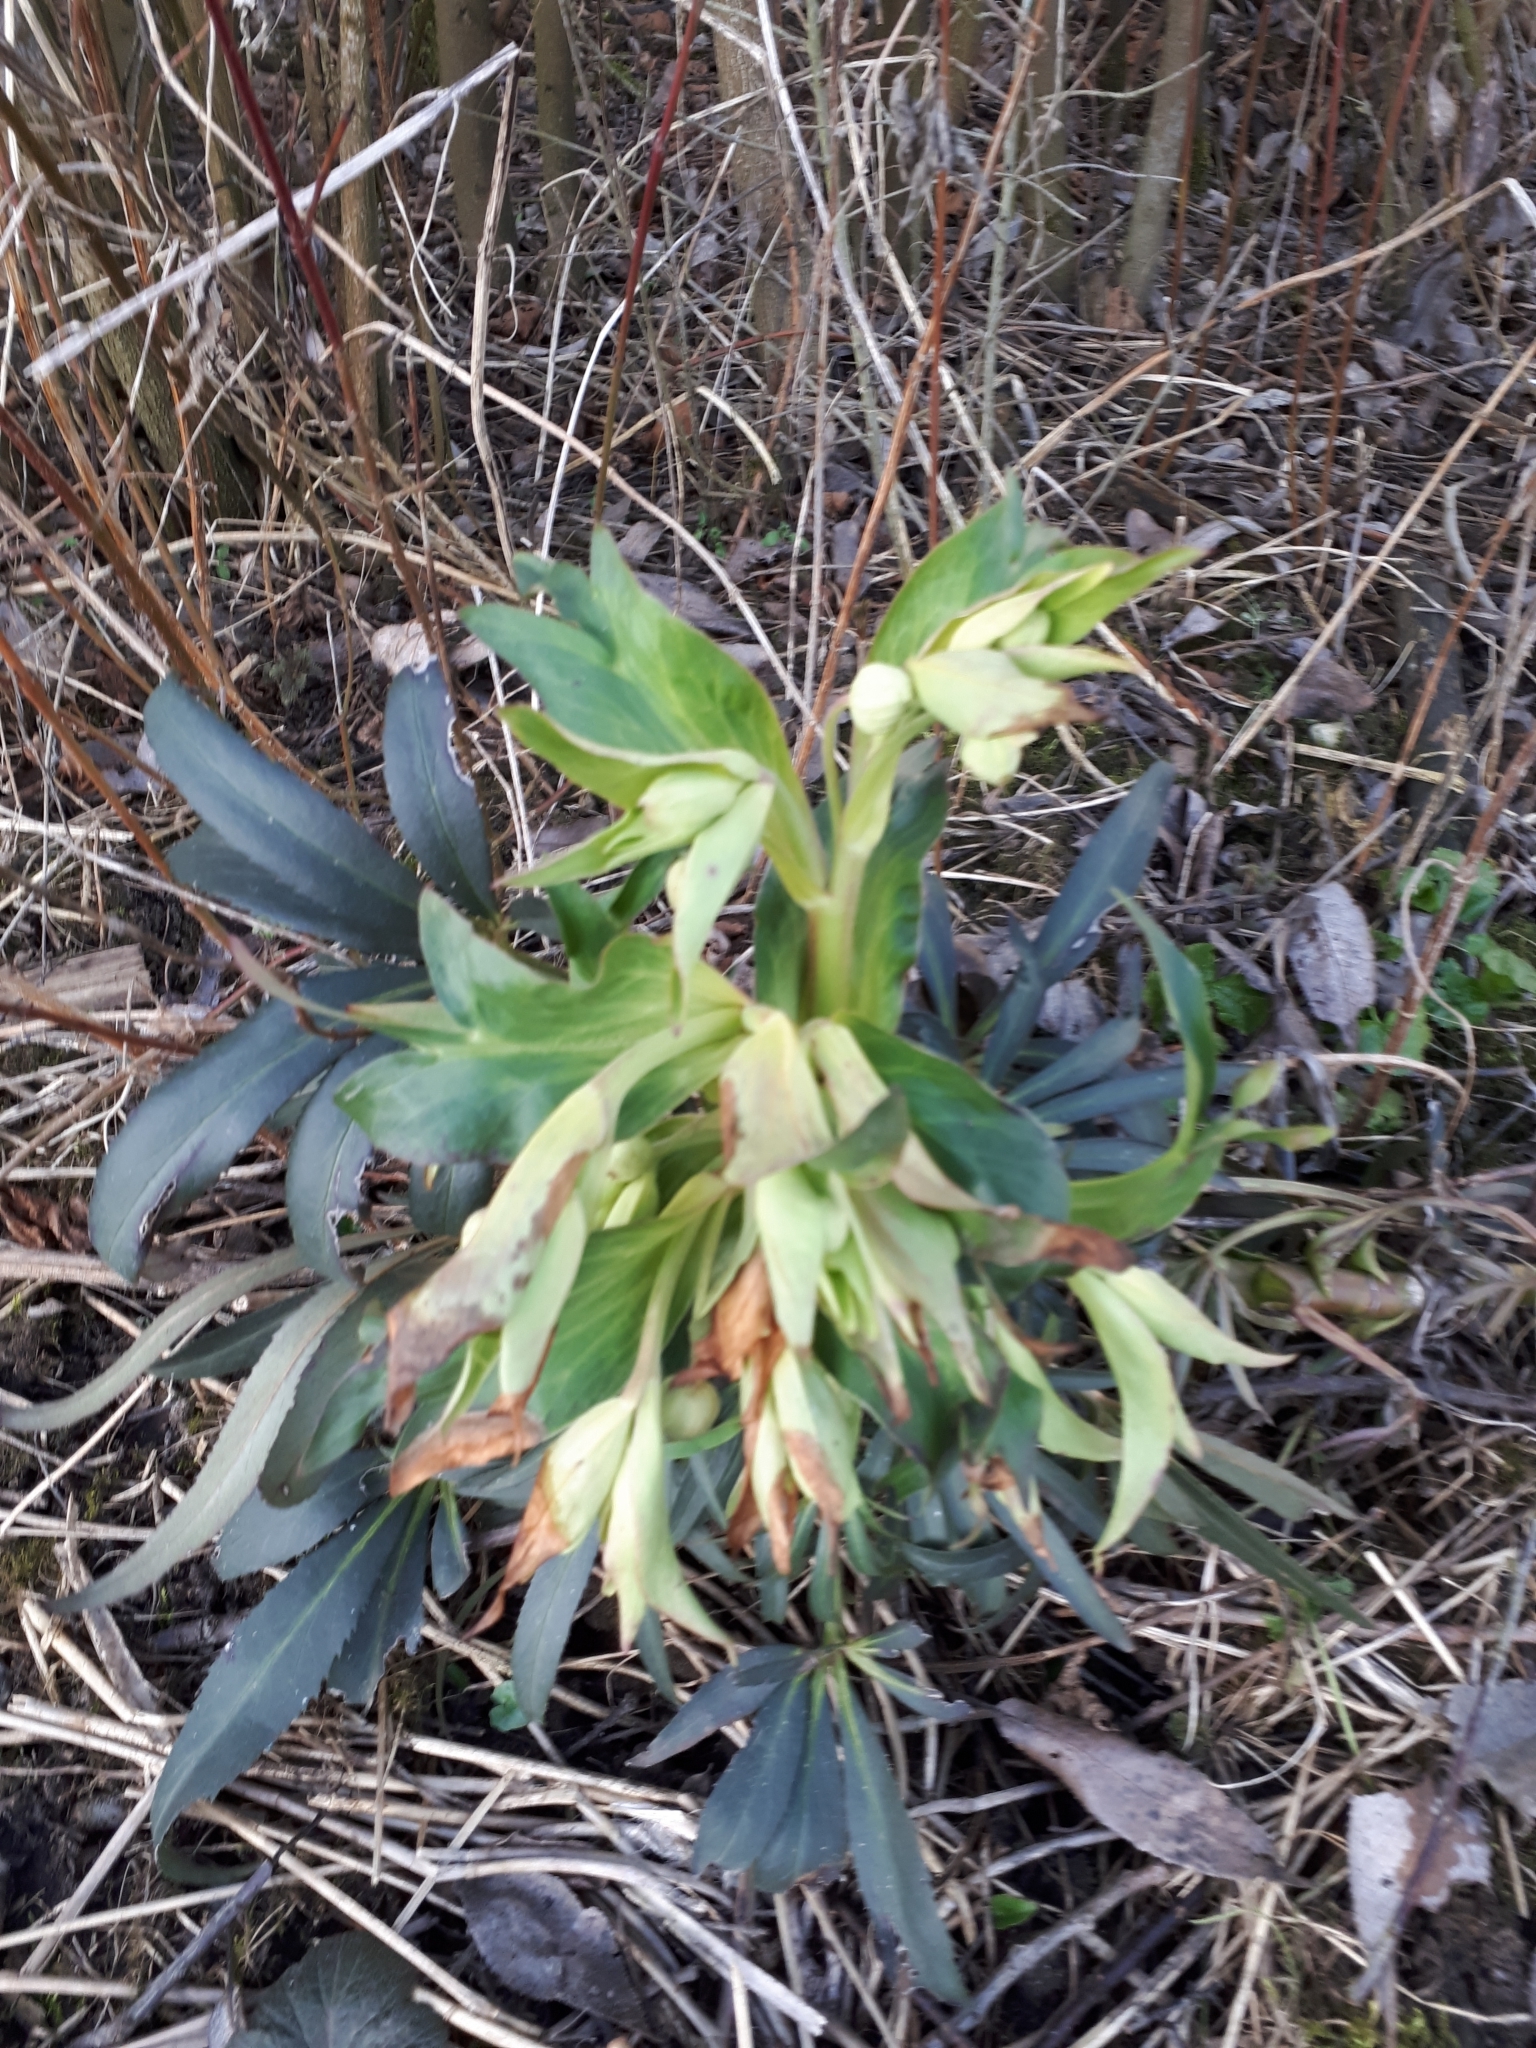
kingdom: Plantae
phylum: Tracheophyta
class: Magnoliopsida
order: Ranunculales
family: Ranunculaceae
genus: Helleborus
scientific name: Helleborus foetidus
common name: Stinking hellebore
